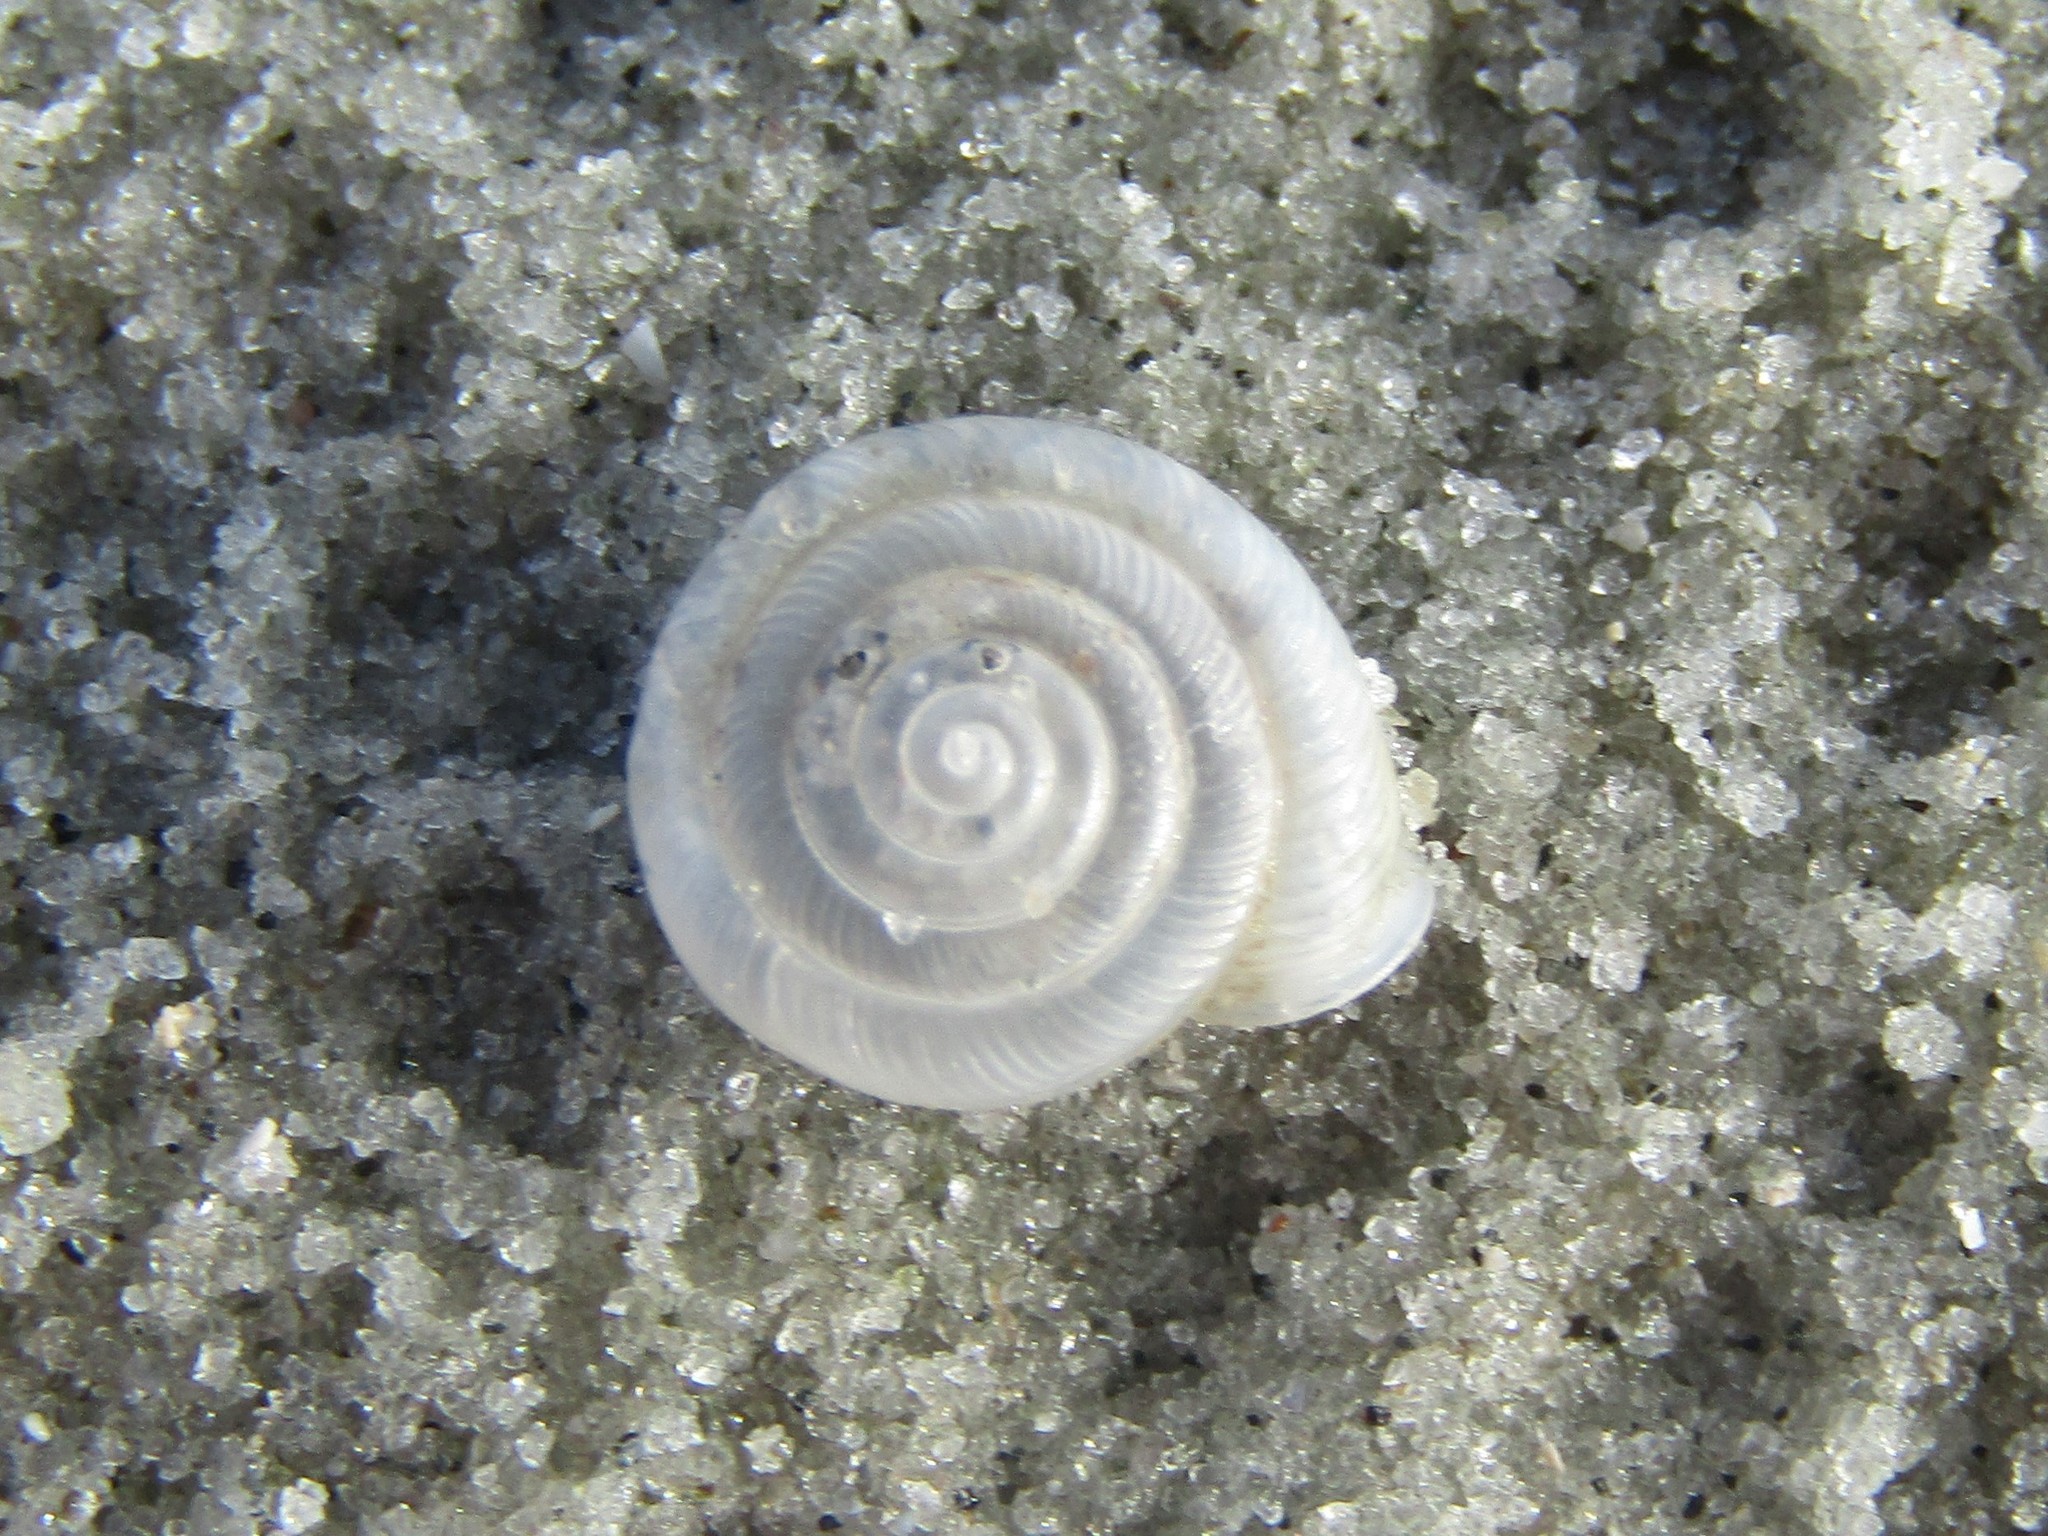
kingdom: Animalia
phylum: Mollusca
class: Gastropoda
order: Stylommatophora
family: Polygyridae
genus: Polygyra
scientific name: Polygyra cereolus
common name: Southern flatcone snail
